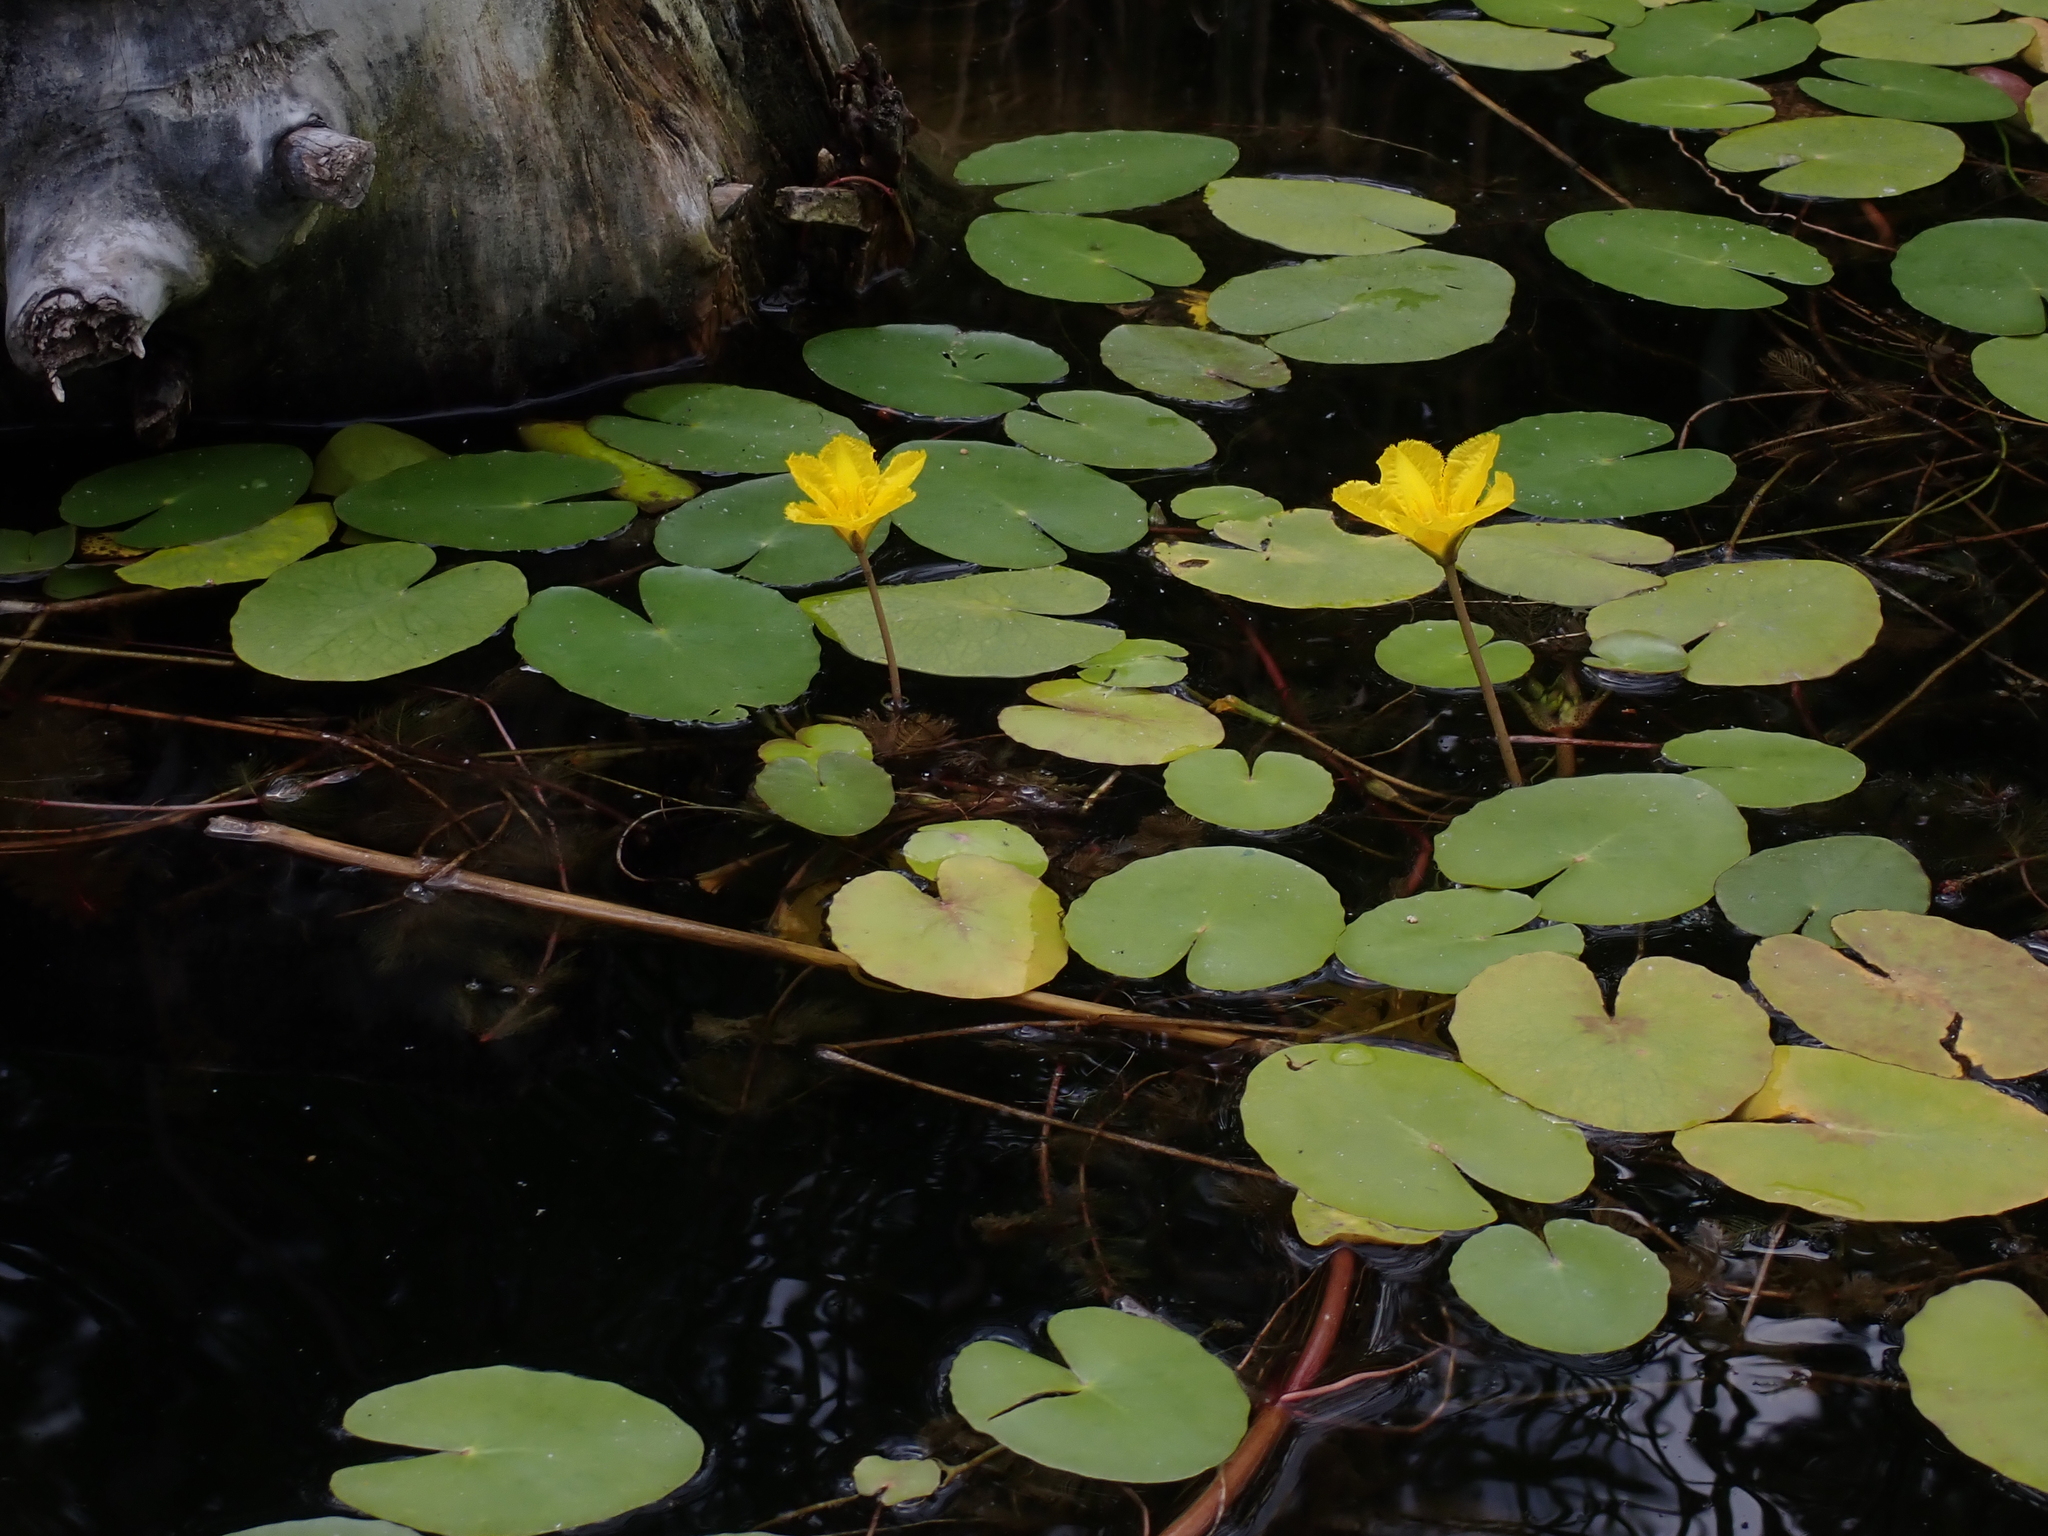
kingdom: Plantae
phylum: Tracheophyta
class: Magnoliopsida
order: Asterales
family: Menyanthaceae
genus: Nymphoides
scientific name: Nymphoides peltata
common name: Fringed water-lily
